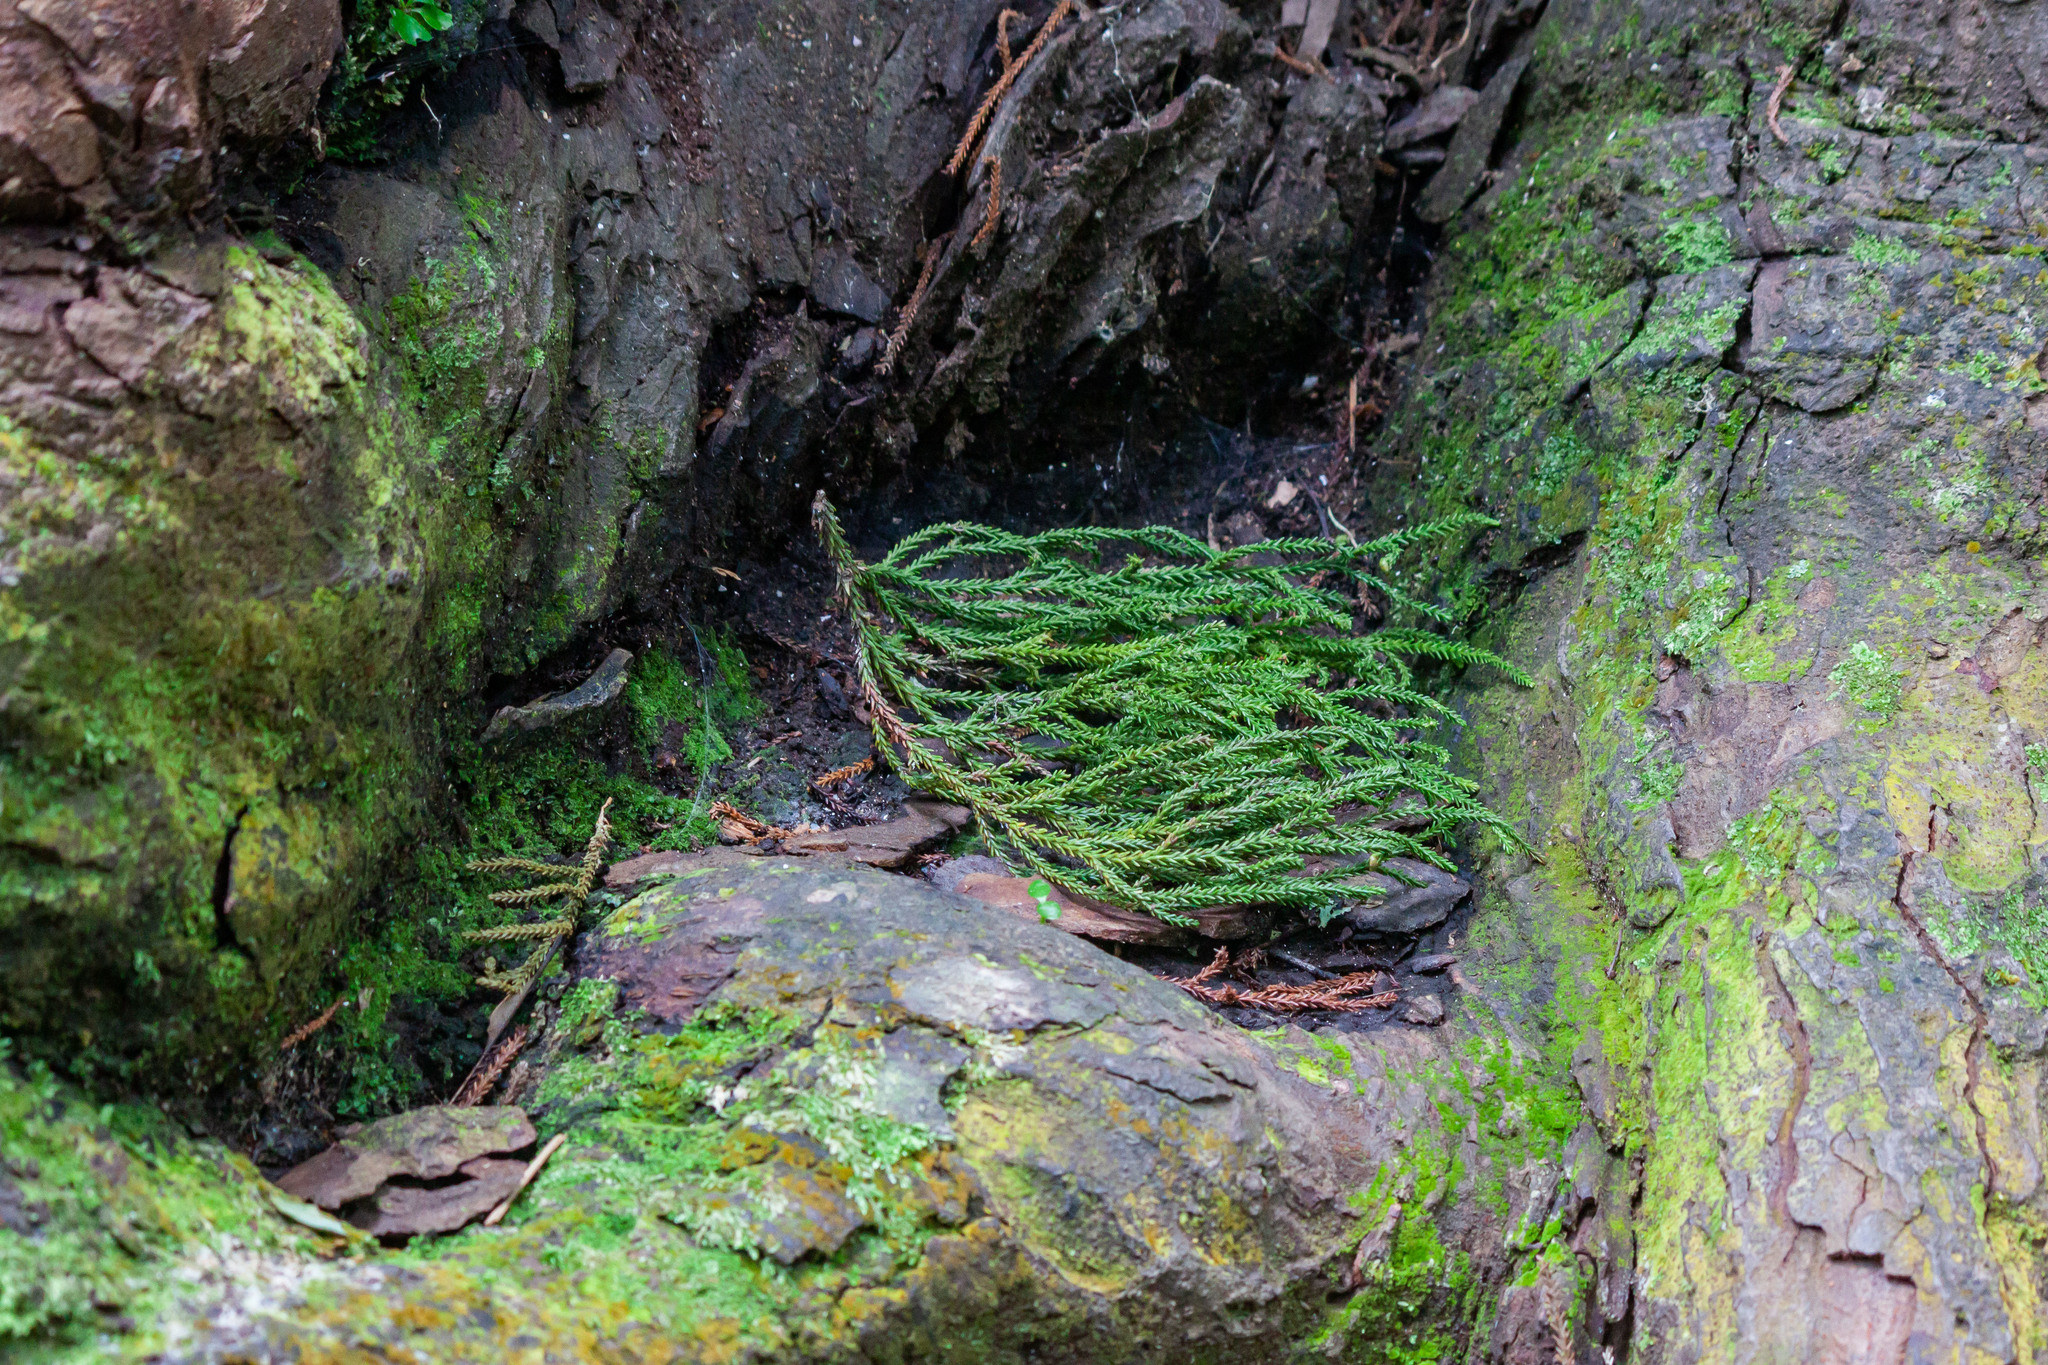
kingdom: Plantae
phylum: Tracheophyta
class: Pinopsida
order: Pinales
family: Podocarpaceae
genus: Dacrydium
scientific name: Dacrydium cupressinum
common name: Red pine
